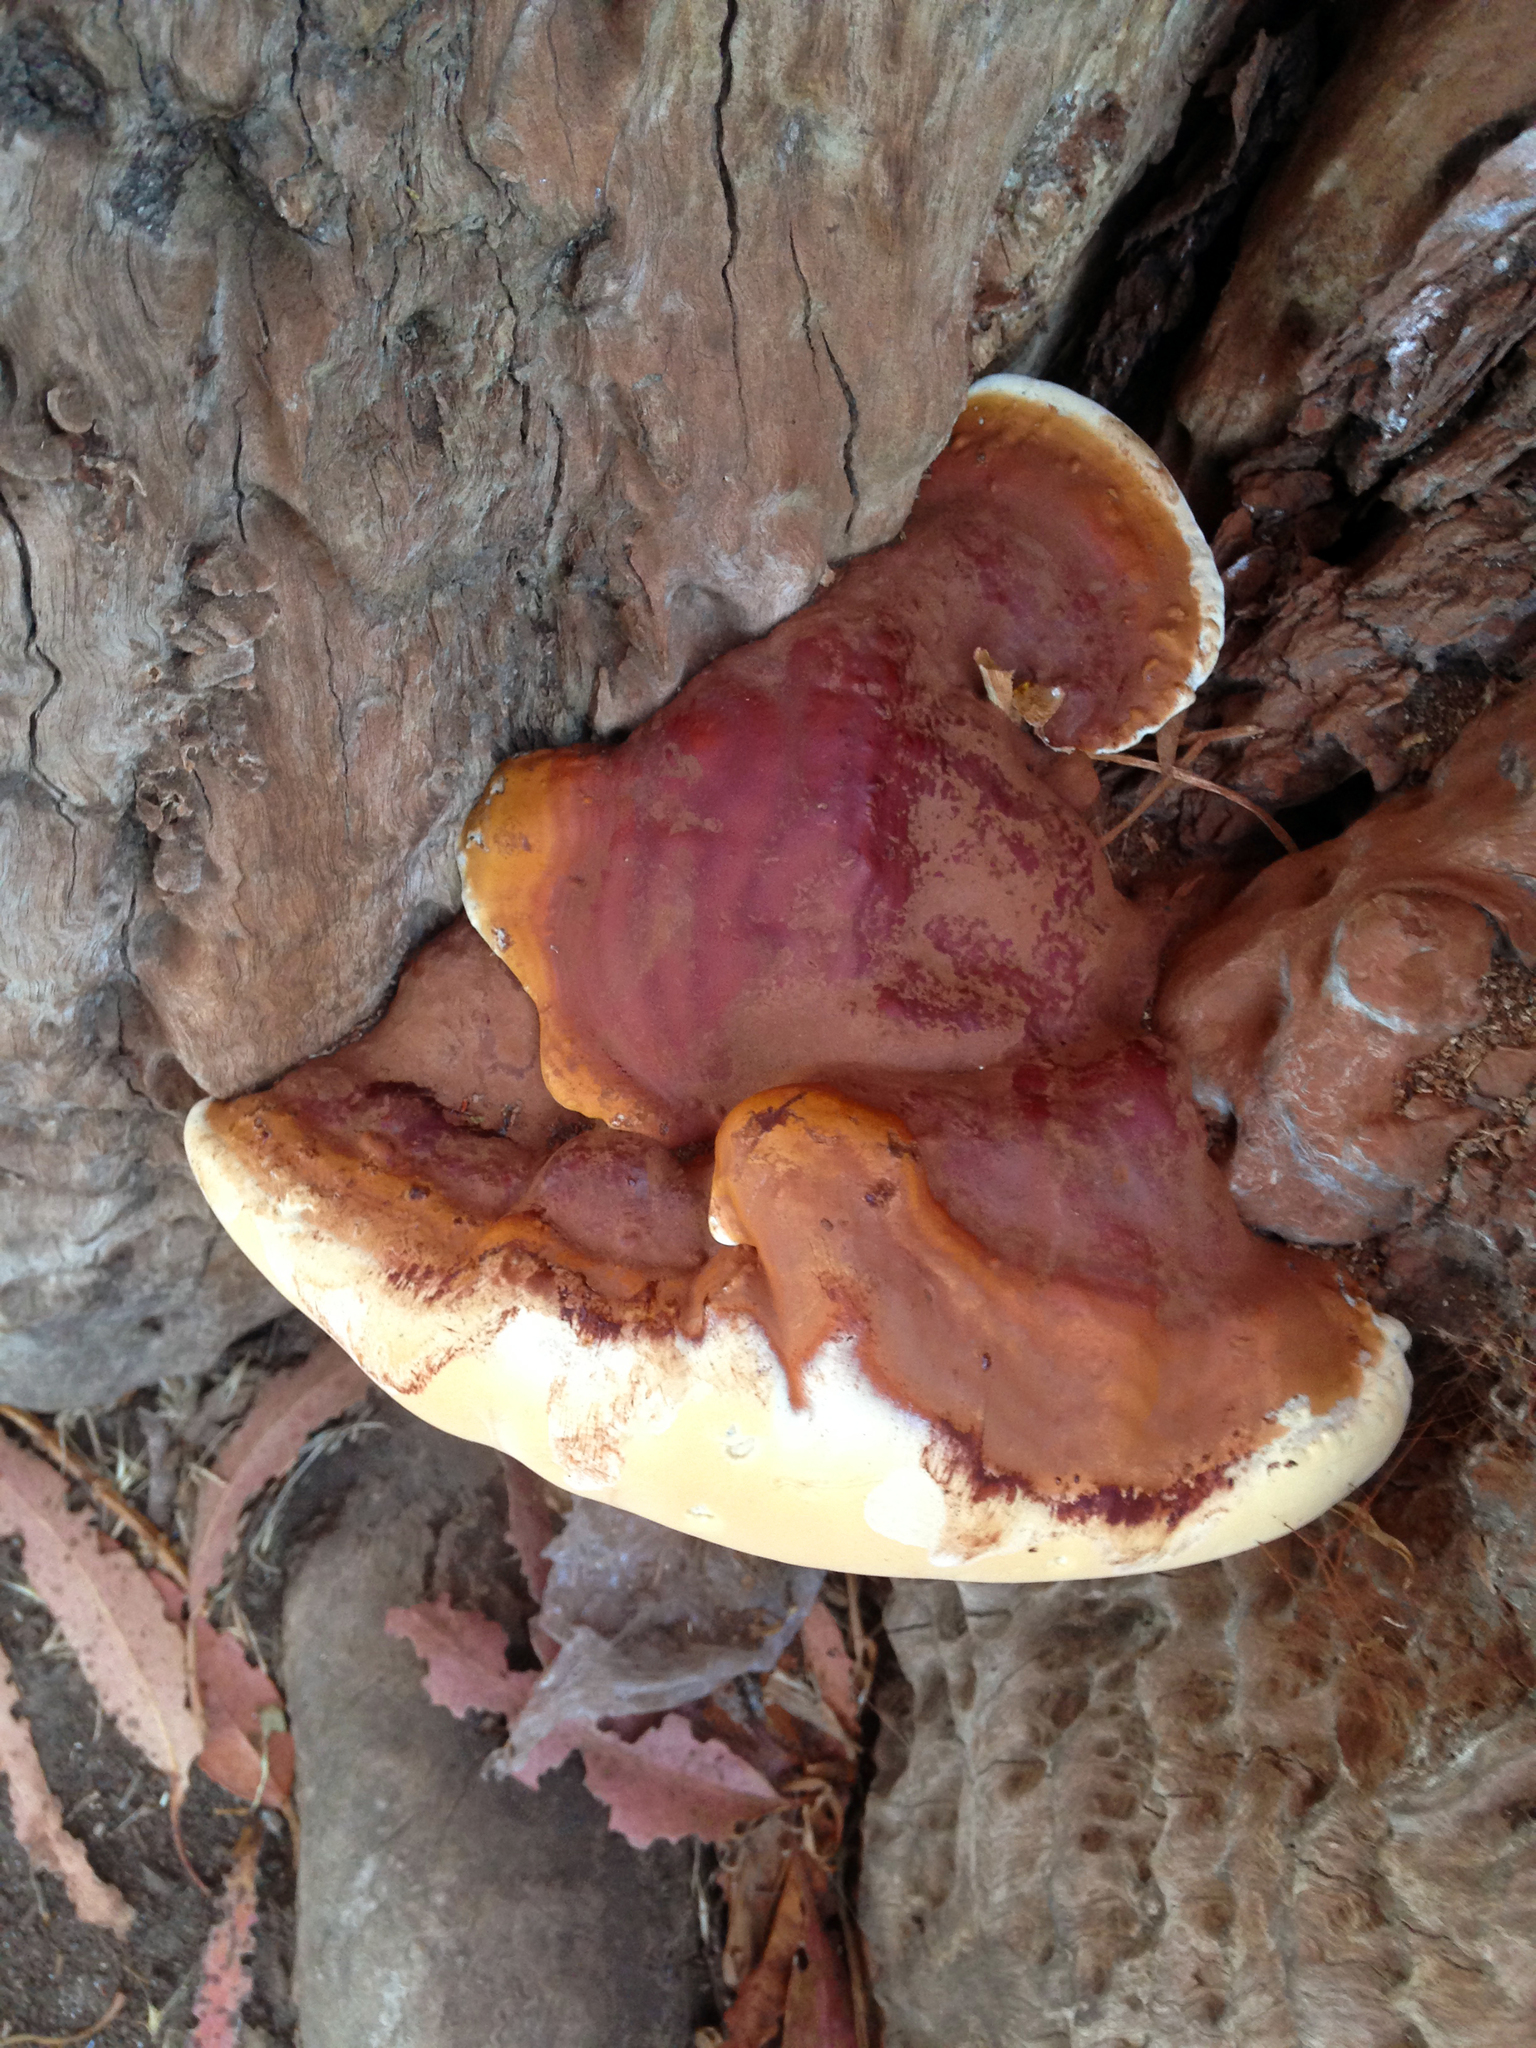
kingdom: Fungi
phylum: Basidiomycota
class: Agaricomycetes
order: Polyporales
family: Polyporaceae
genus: Ganoderma
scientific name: Ganoderma polychromum
